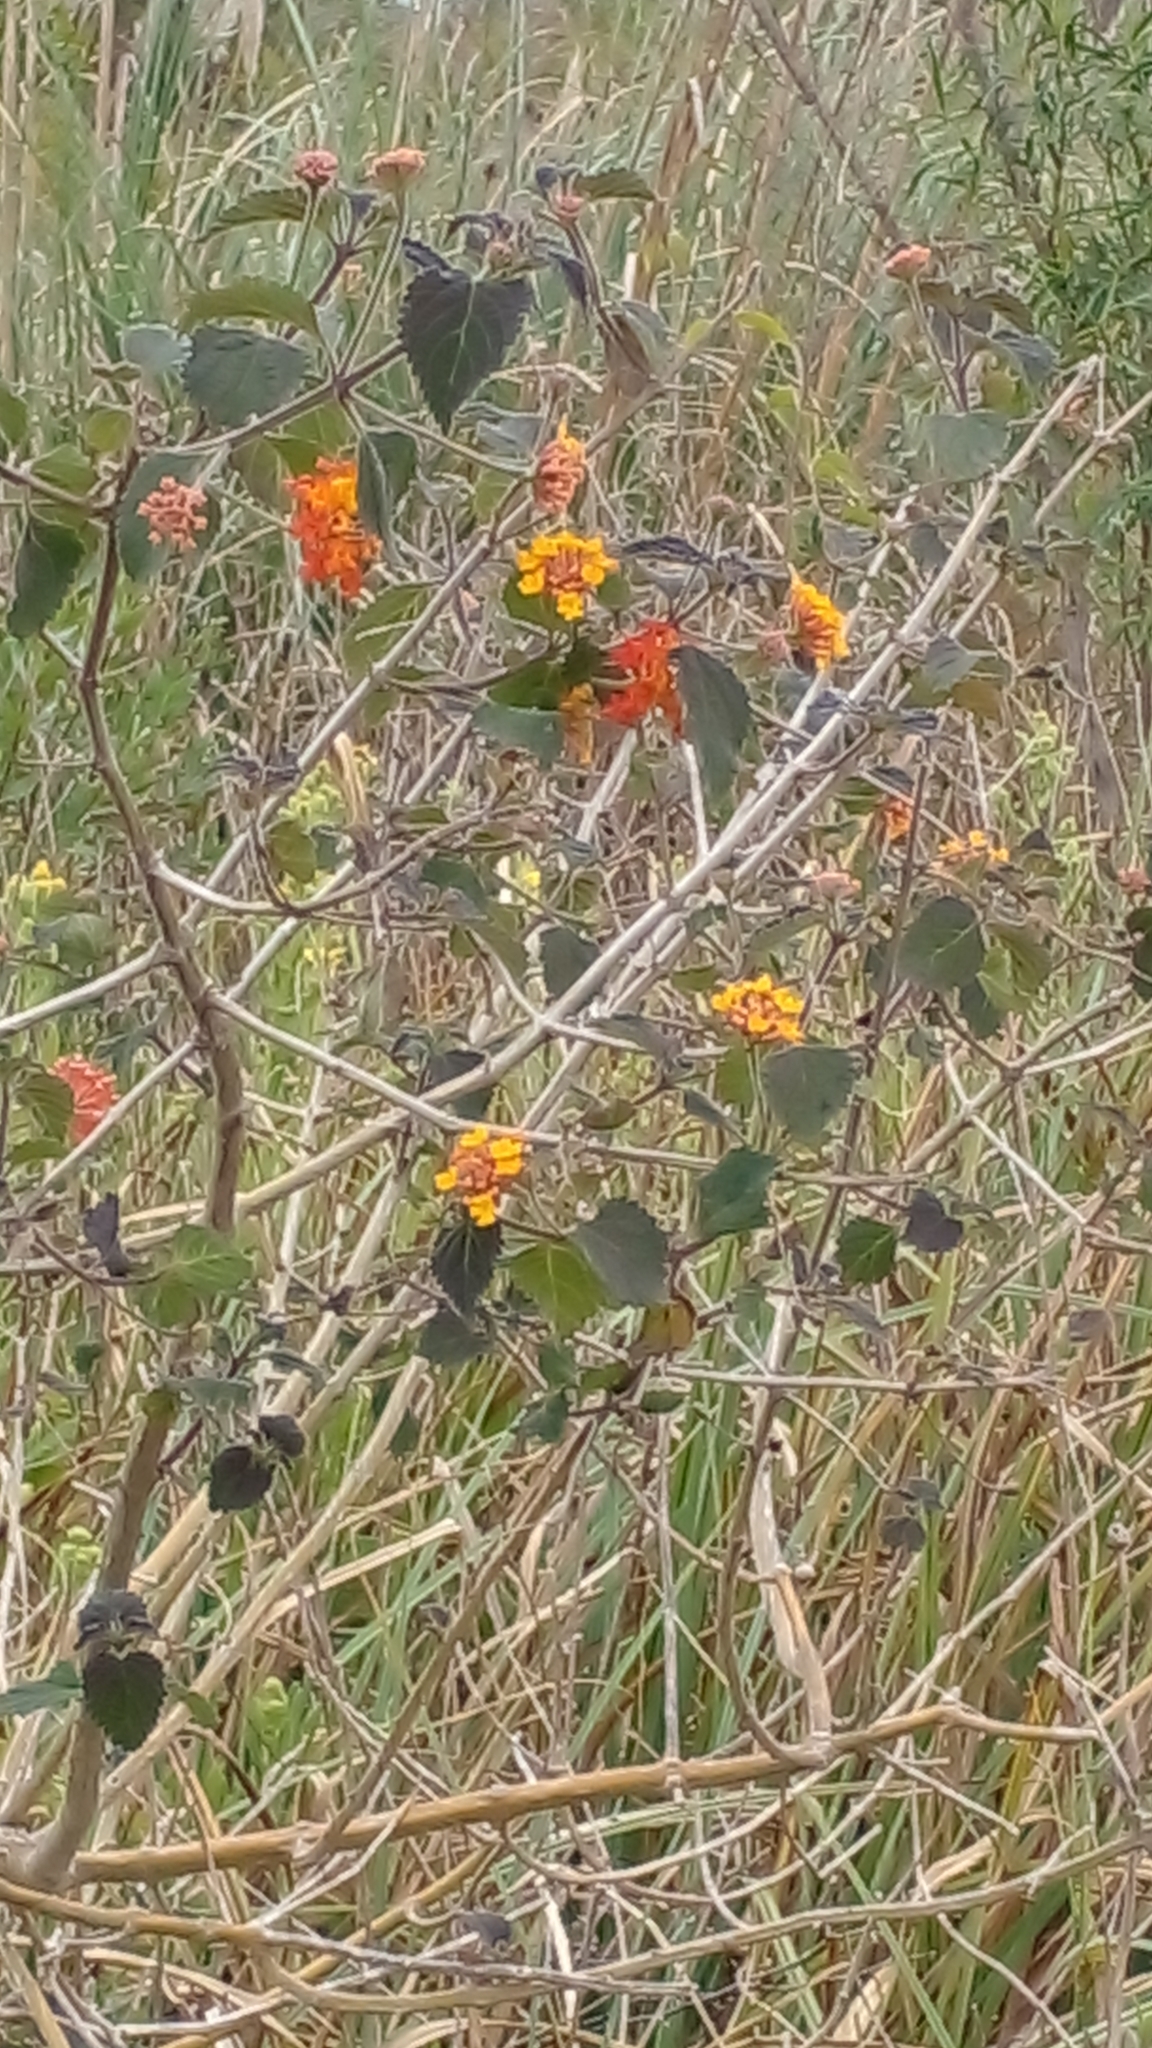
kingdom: Plantae
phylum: Tracheophyta
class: Magnoliopsida
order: Lamiales
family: Verbenaceae
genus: Lantana
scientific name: Lantana camara
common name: Lantana
